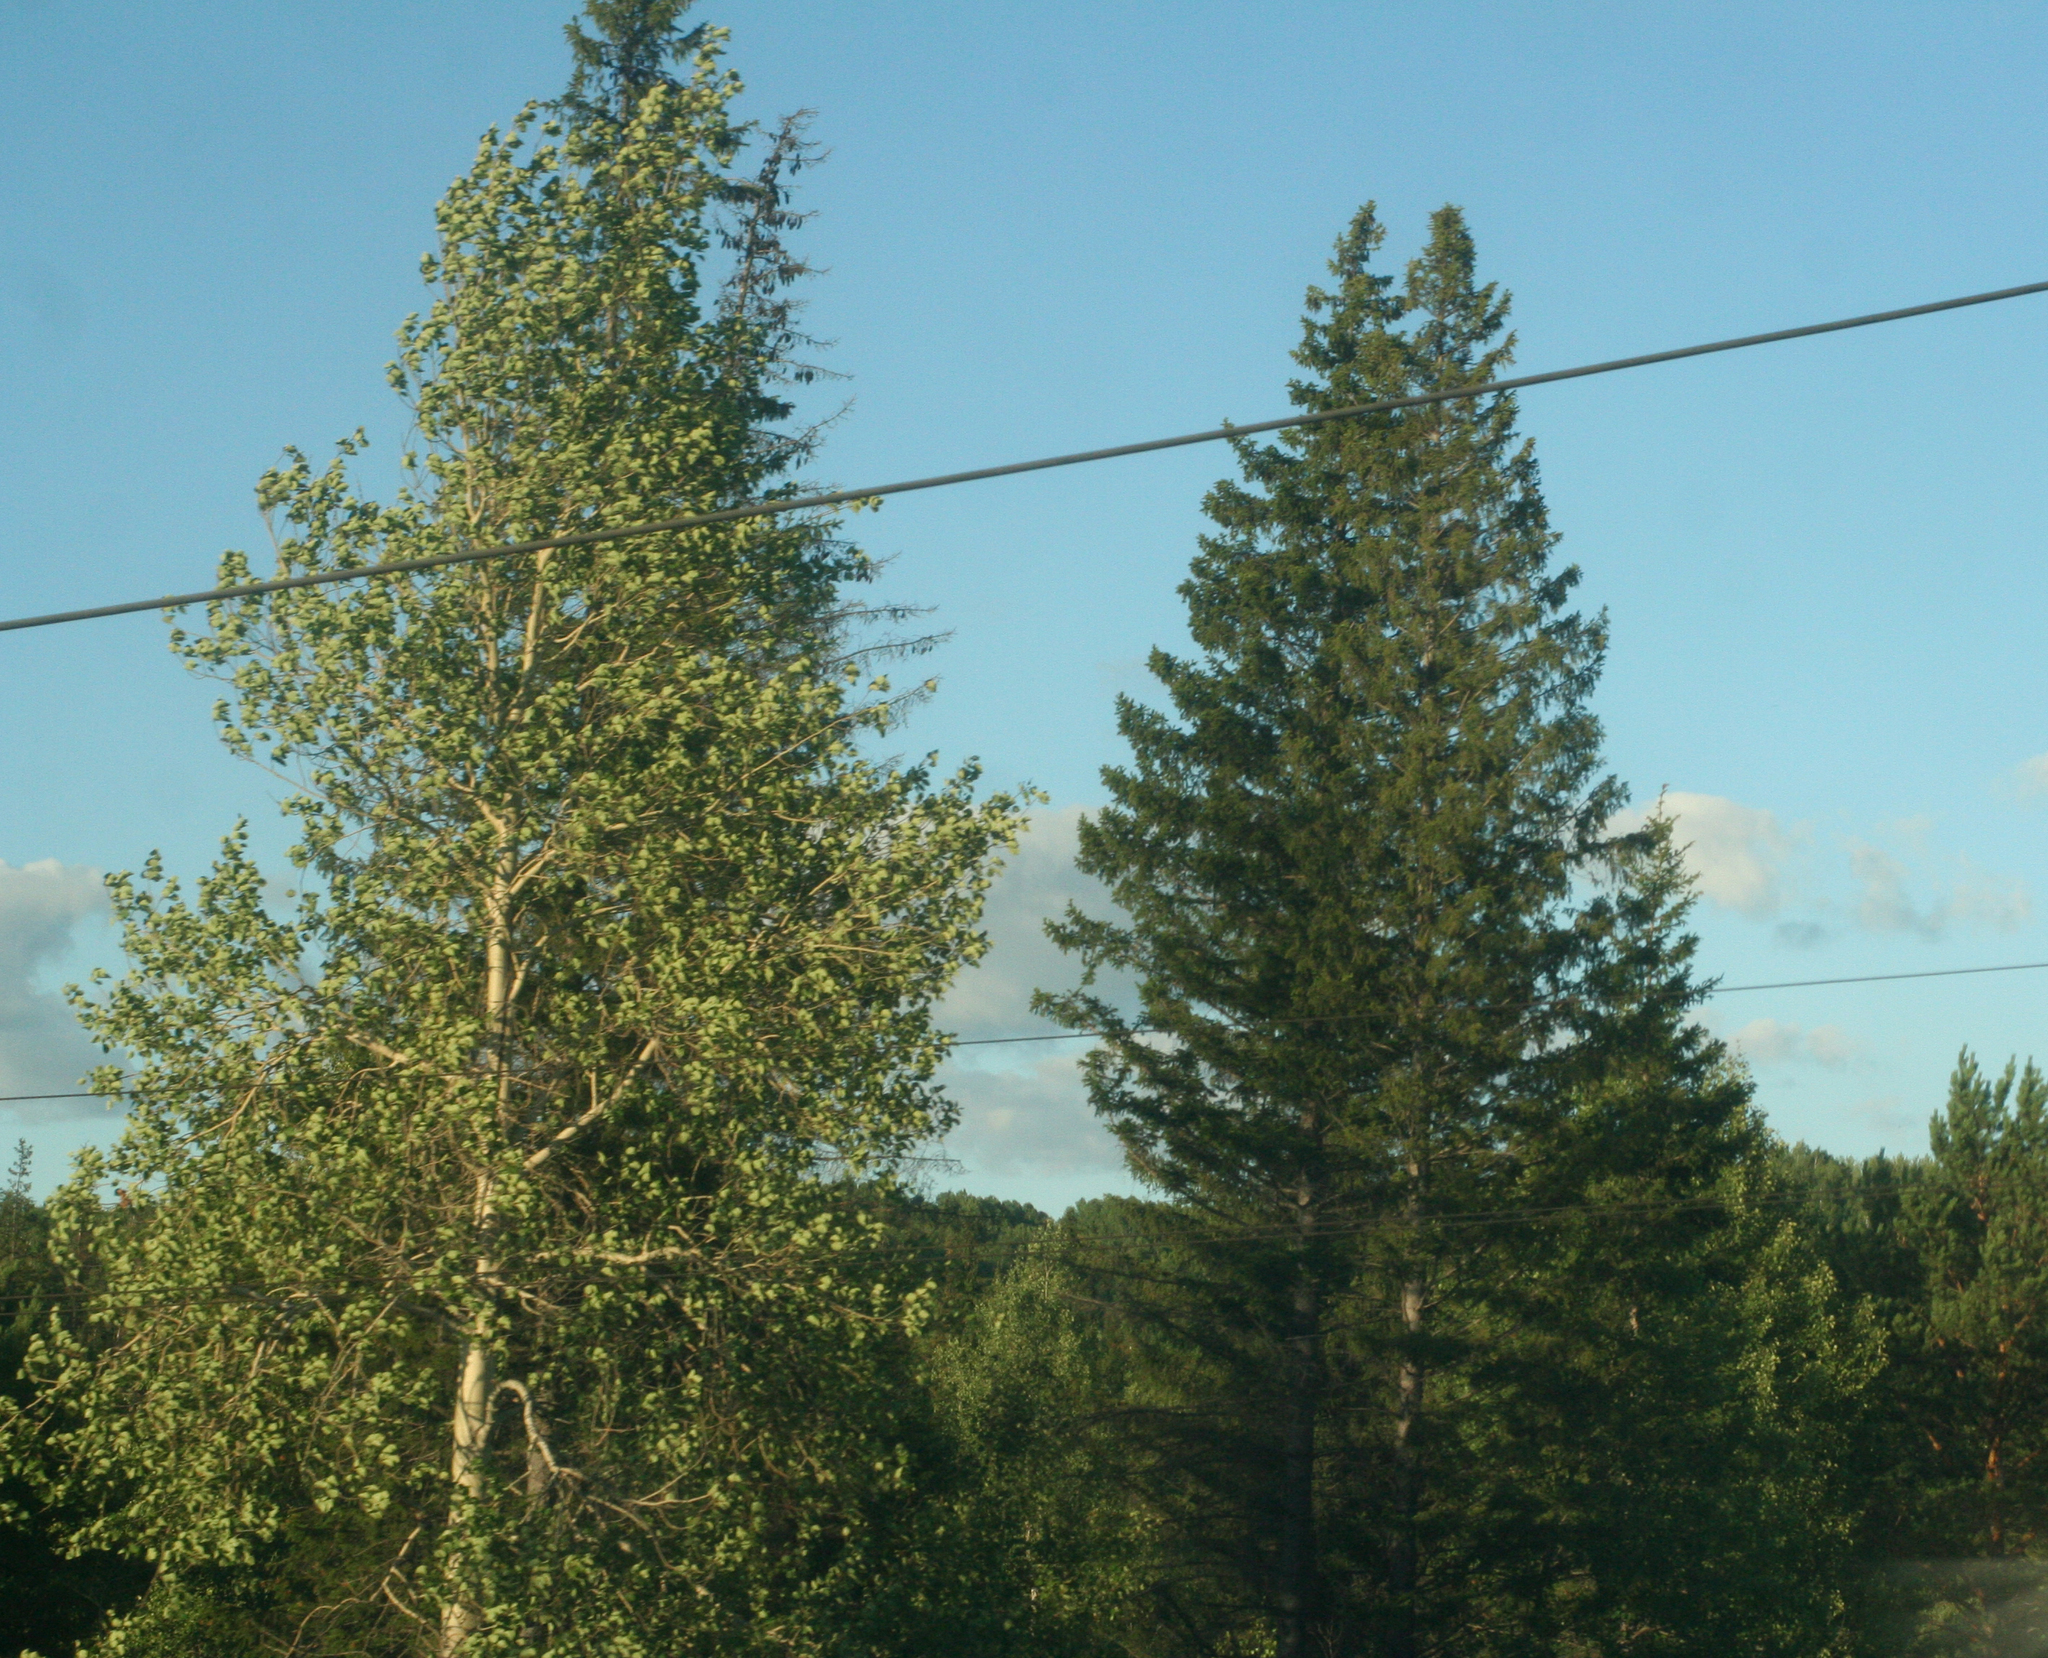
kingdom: Plantae
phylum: Tracheophyta
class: Pinopsida
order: Pinales
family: Pinaceae
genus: Picea
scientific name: Picea obovata
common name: Siberian spruce
